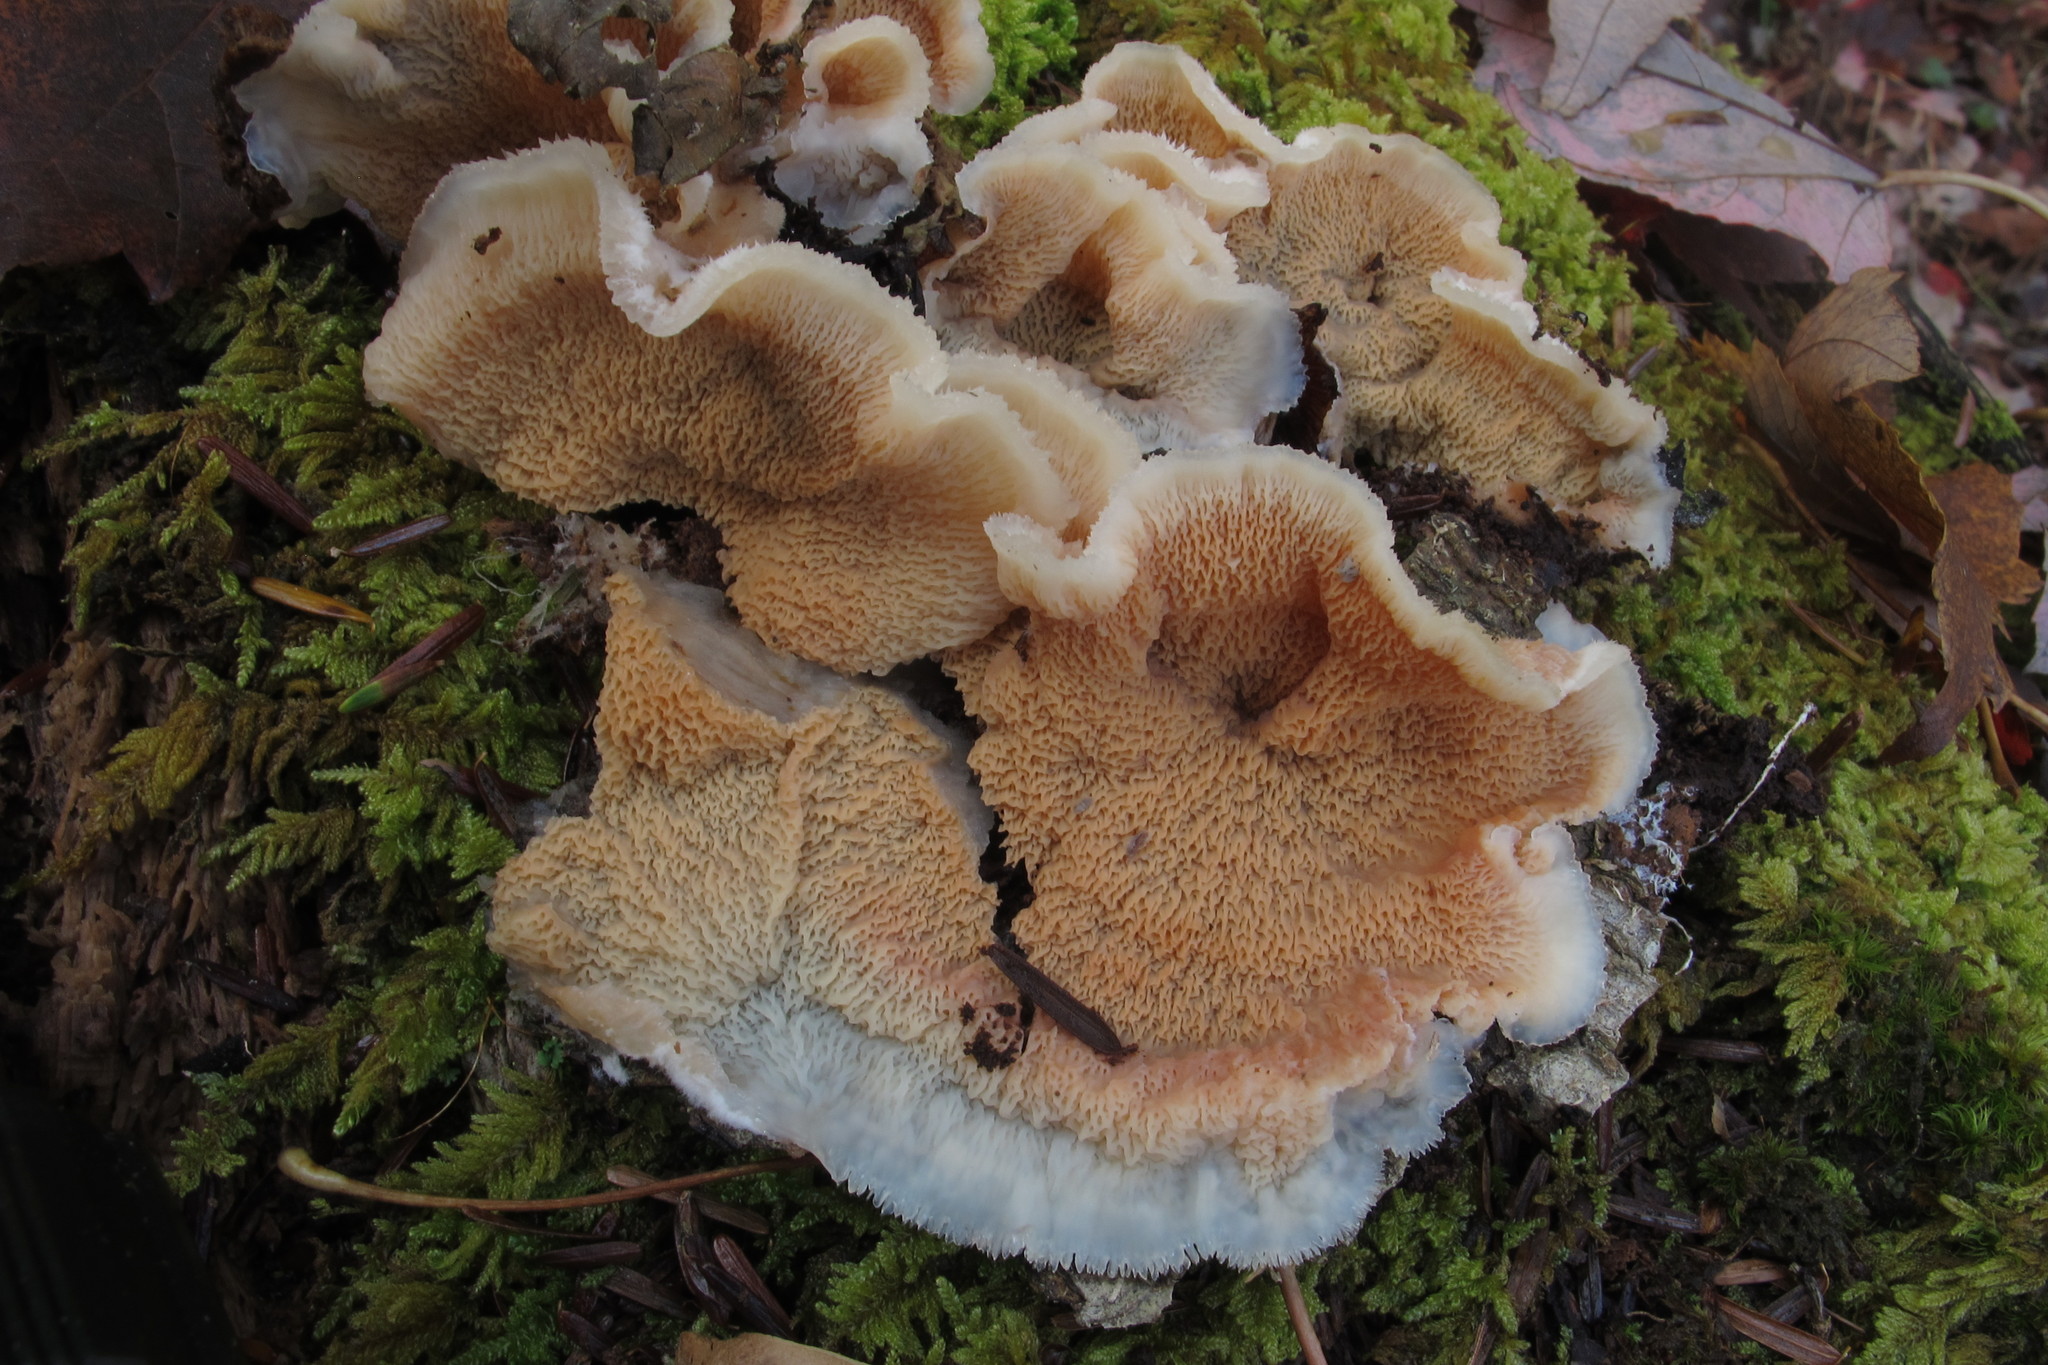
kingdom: Fungi
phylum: Basidiomycota
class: Agaricomycetes
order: Polyporales
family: Meruliaceae
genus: Phlebia
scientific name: Phlebia tremellosa
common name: Jelly rot
